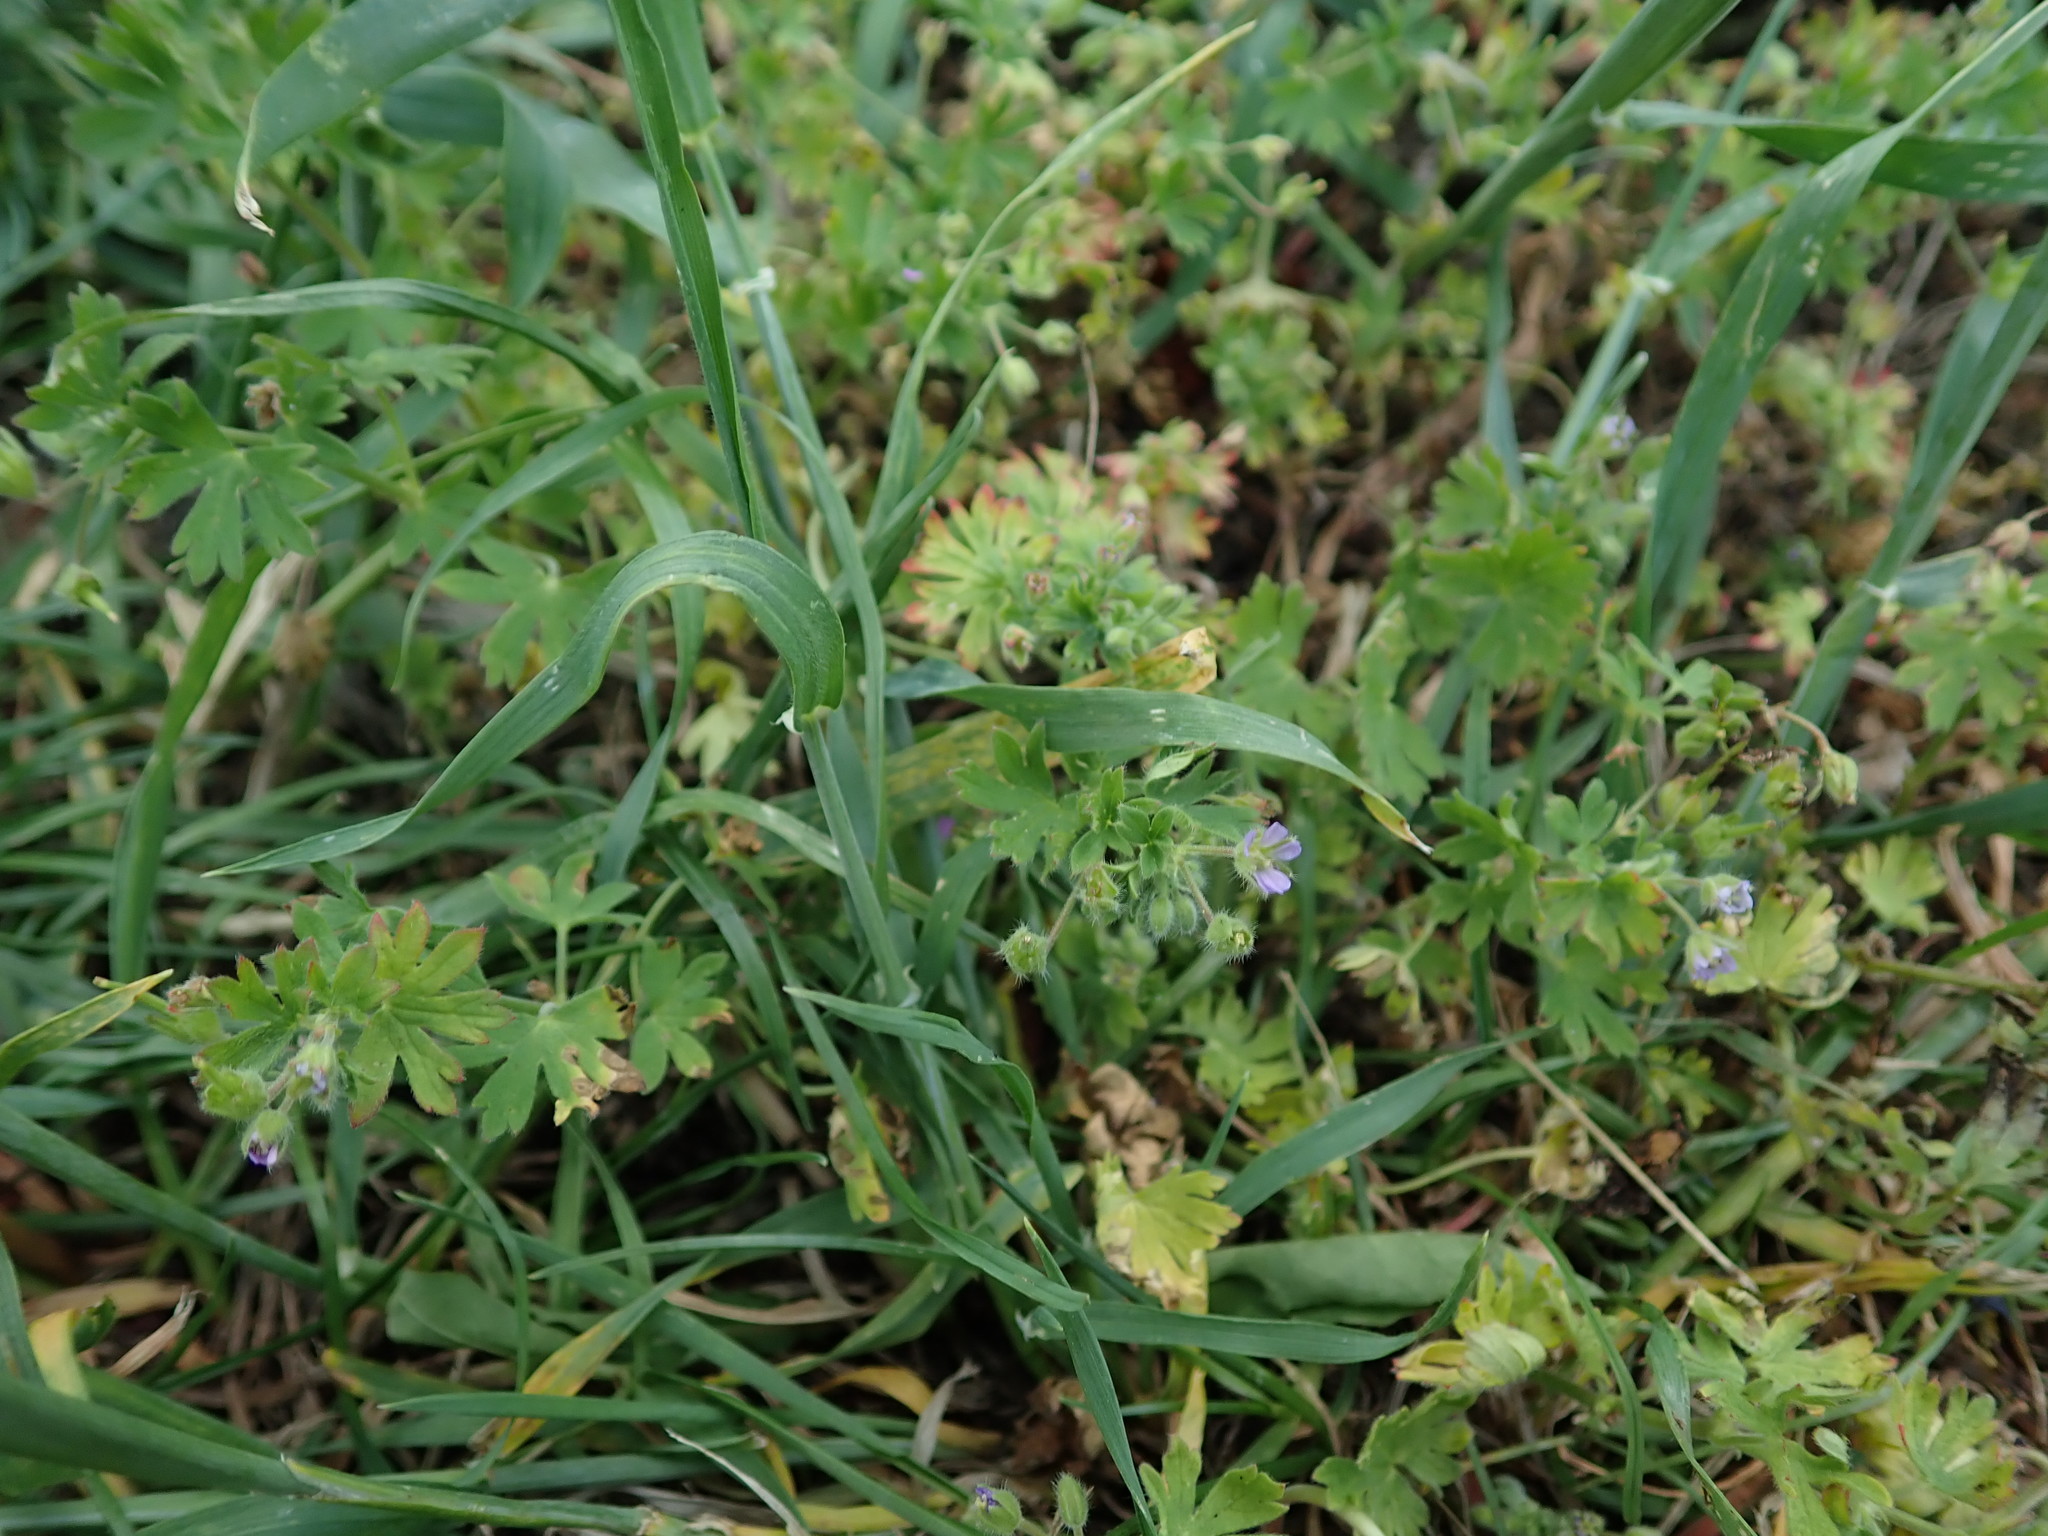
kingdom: Plantae
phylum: Tracheophyta
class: Magnoliopsida
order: Geraniales
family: Geraniaceae
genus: Geranium
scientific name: Geranium pusillum
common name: Small geranium
